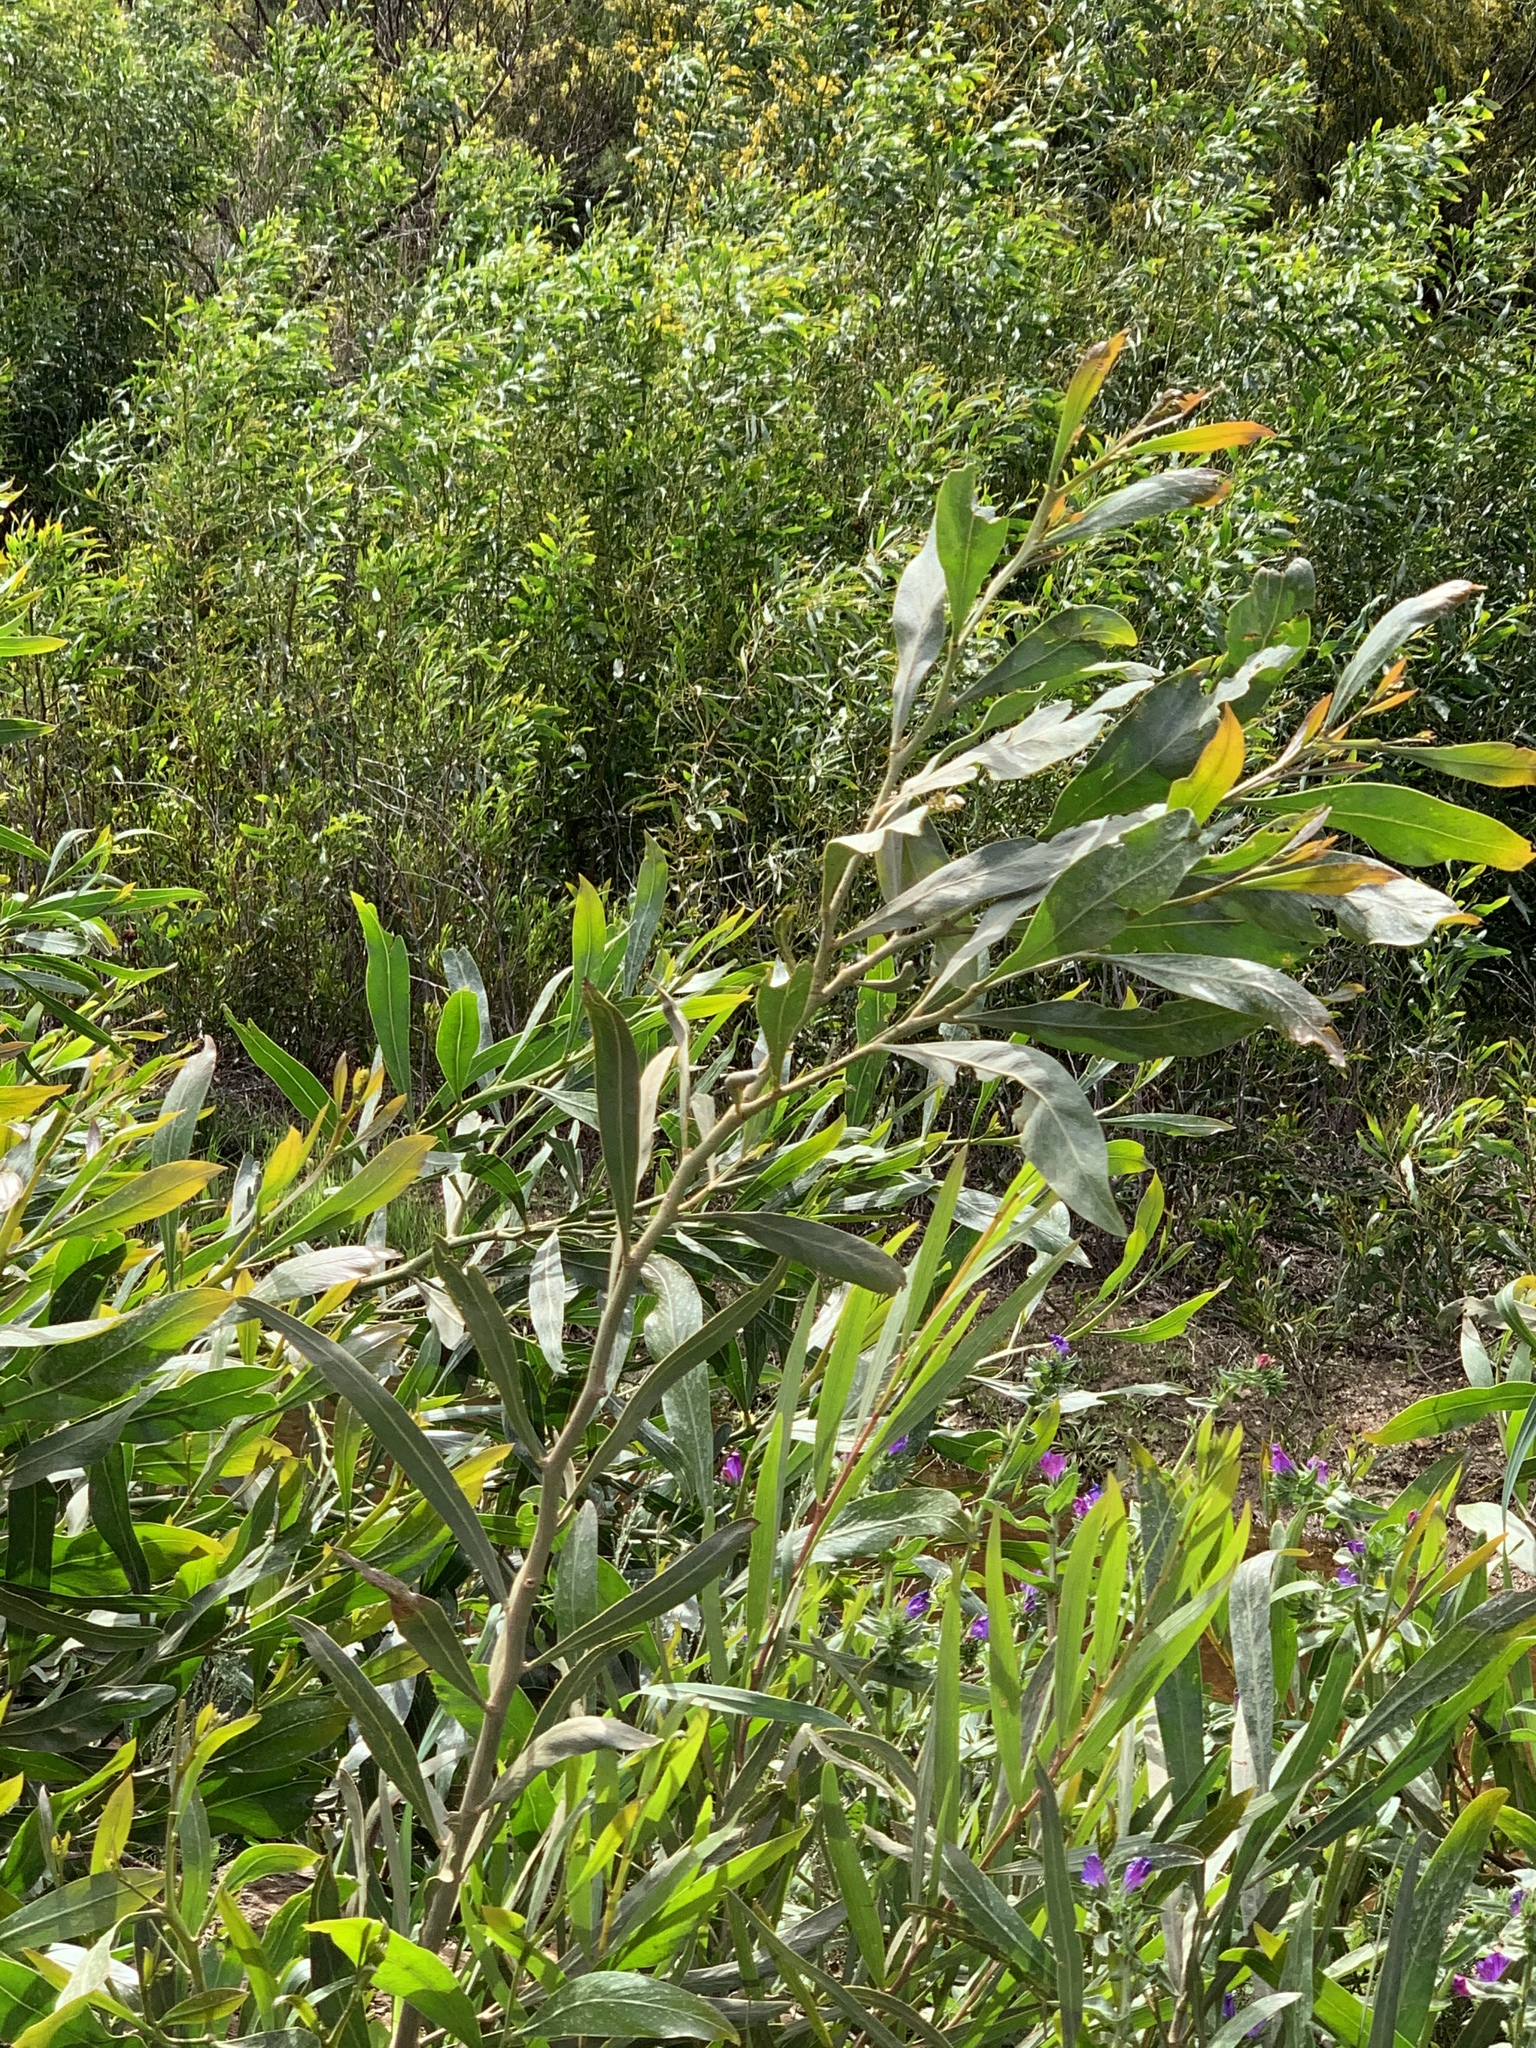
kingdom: Plantae
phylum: Tracheophyta
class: Magnoliopsida
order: Fabales
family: Fabaceae
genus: Acacia
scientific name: Acacia saligna
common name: Orange wattle
